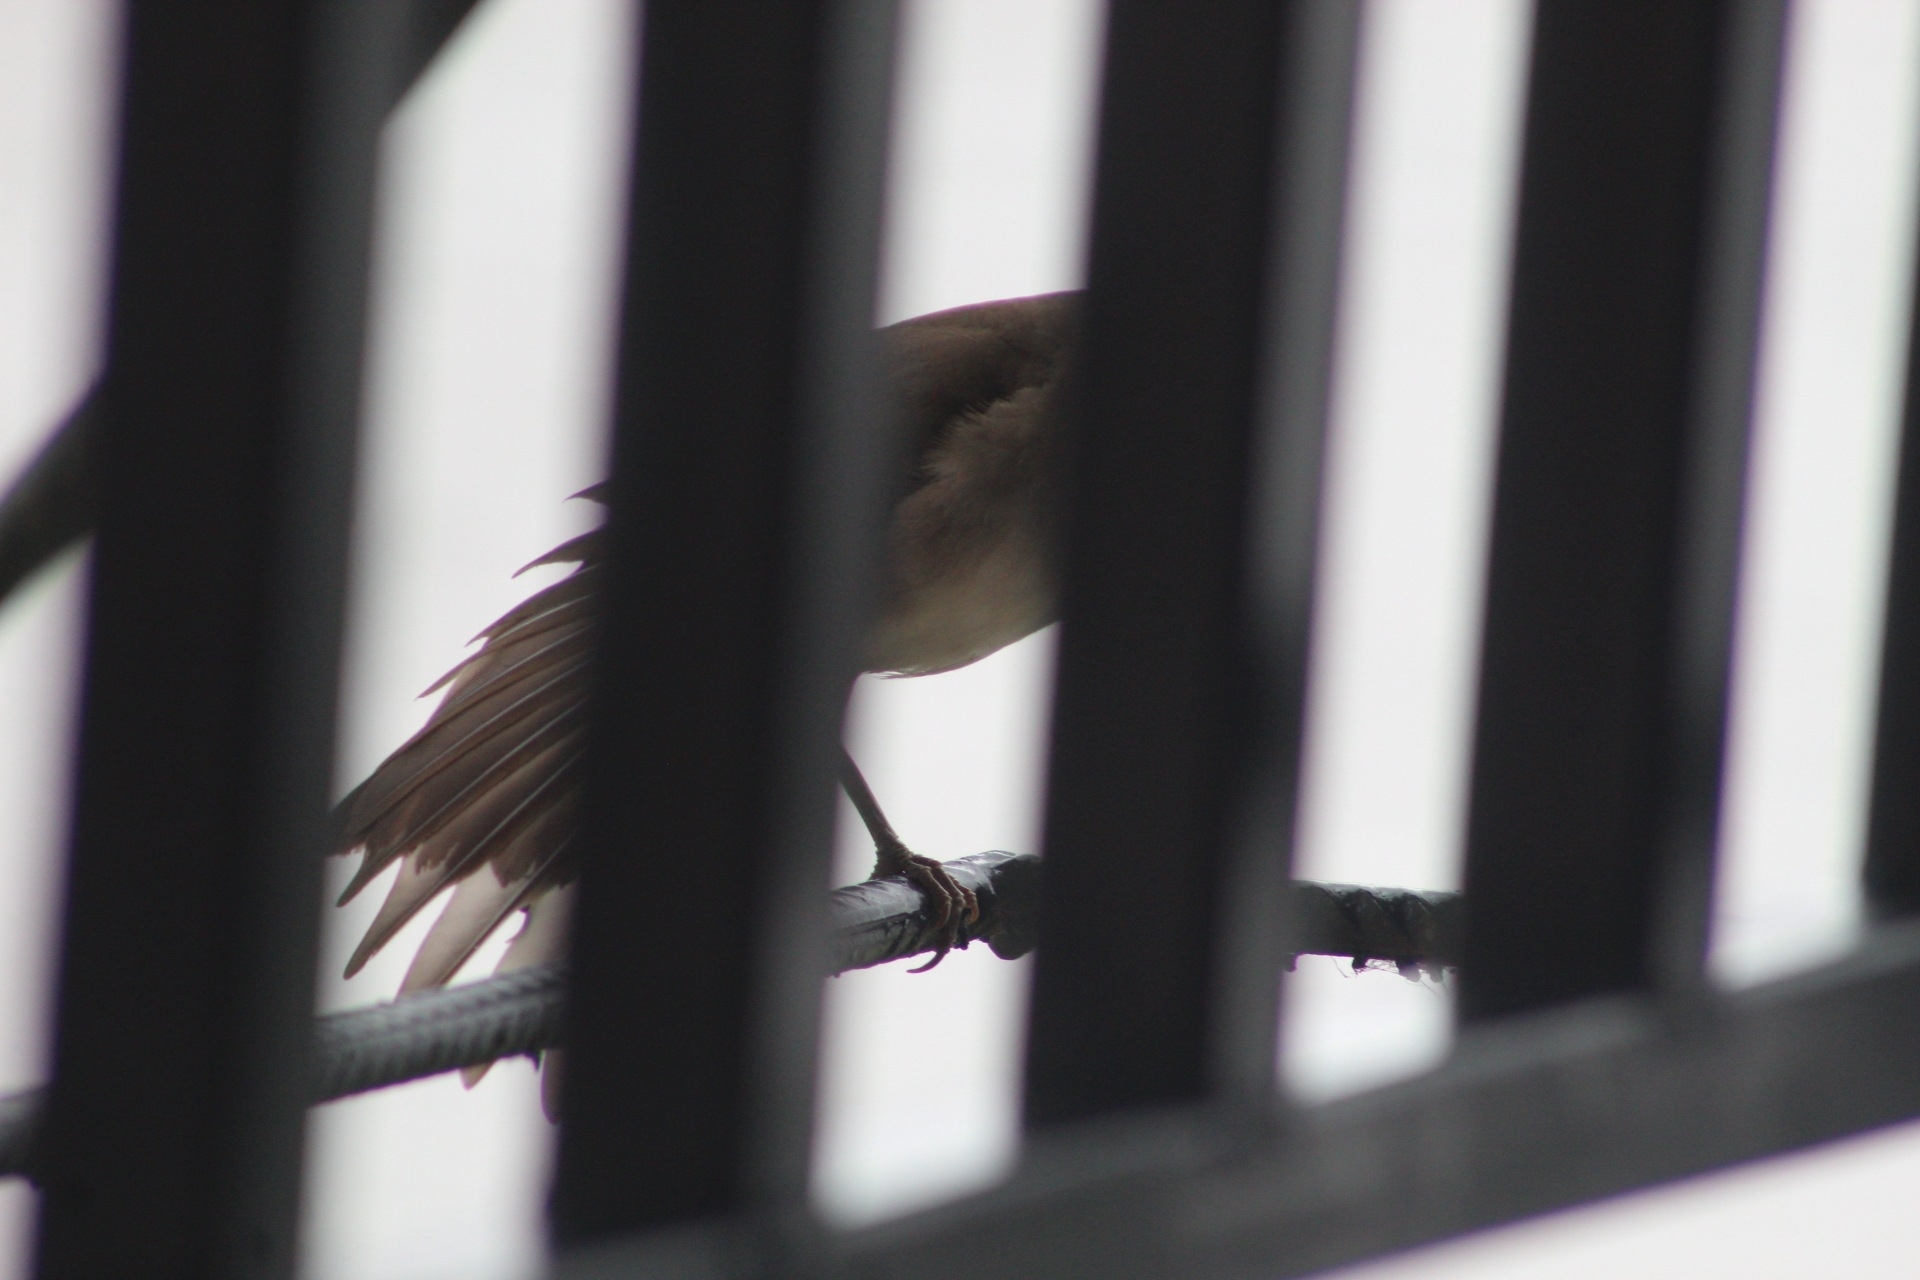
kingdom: Animalia
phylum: Chordata
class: Aves
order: Passeriformes
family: Turdidae
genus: Turdus
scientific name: Turdus ignobilis
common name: Black-billed thrush
